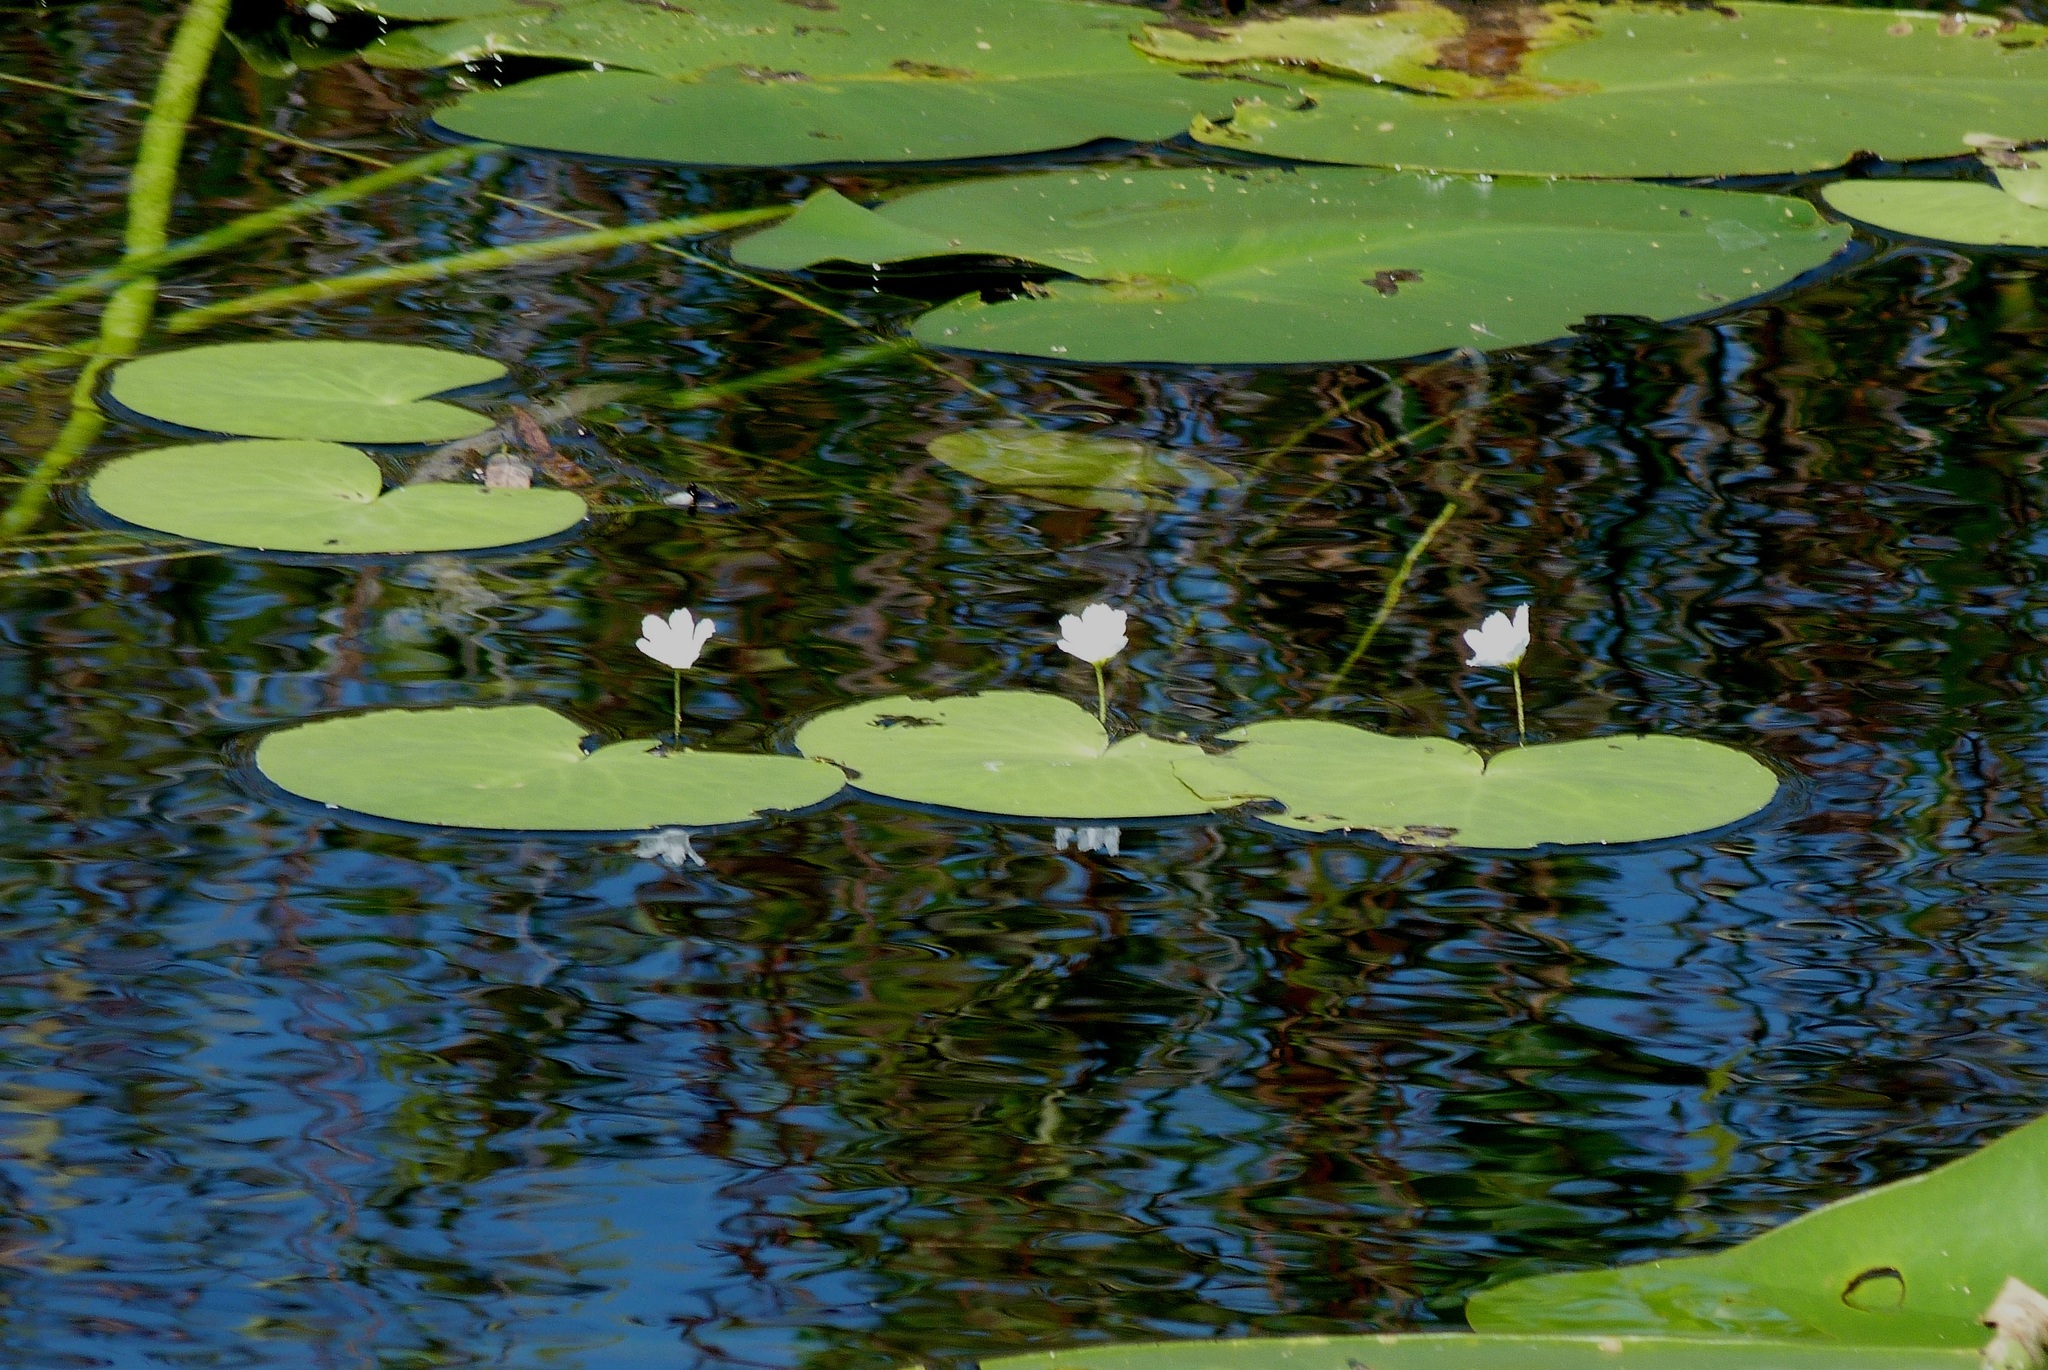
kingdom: Plantae
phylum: Tracheophyta
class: Magnoliopsida
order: Asterales
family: Menyanthaceae
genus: Nymphoides
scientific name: Nymphoides aquatica
